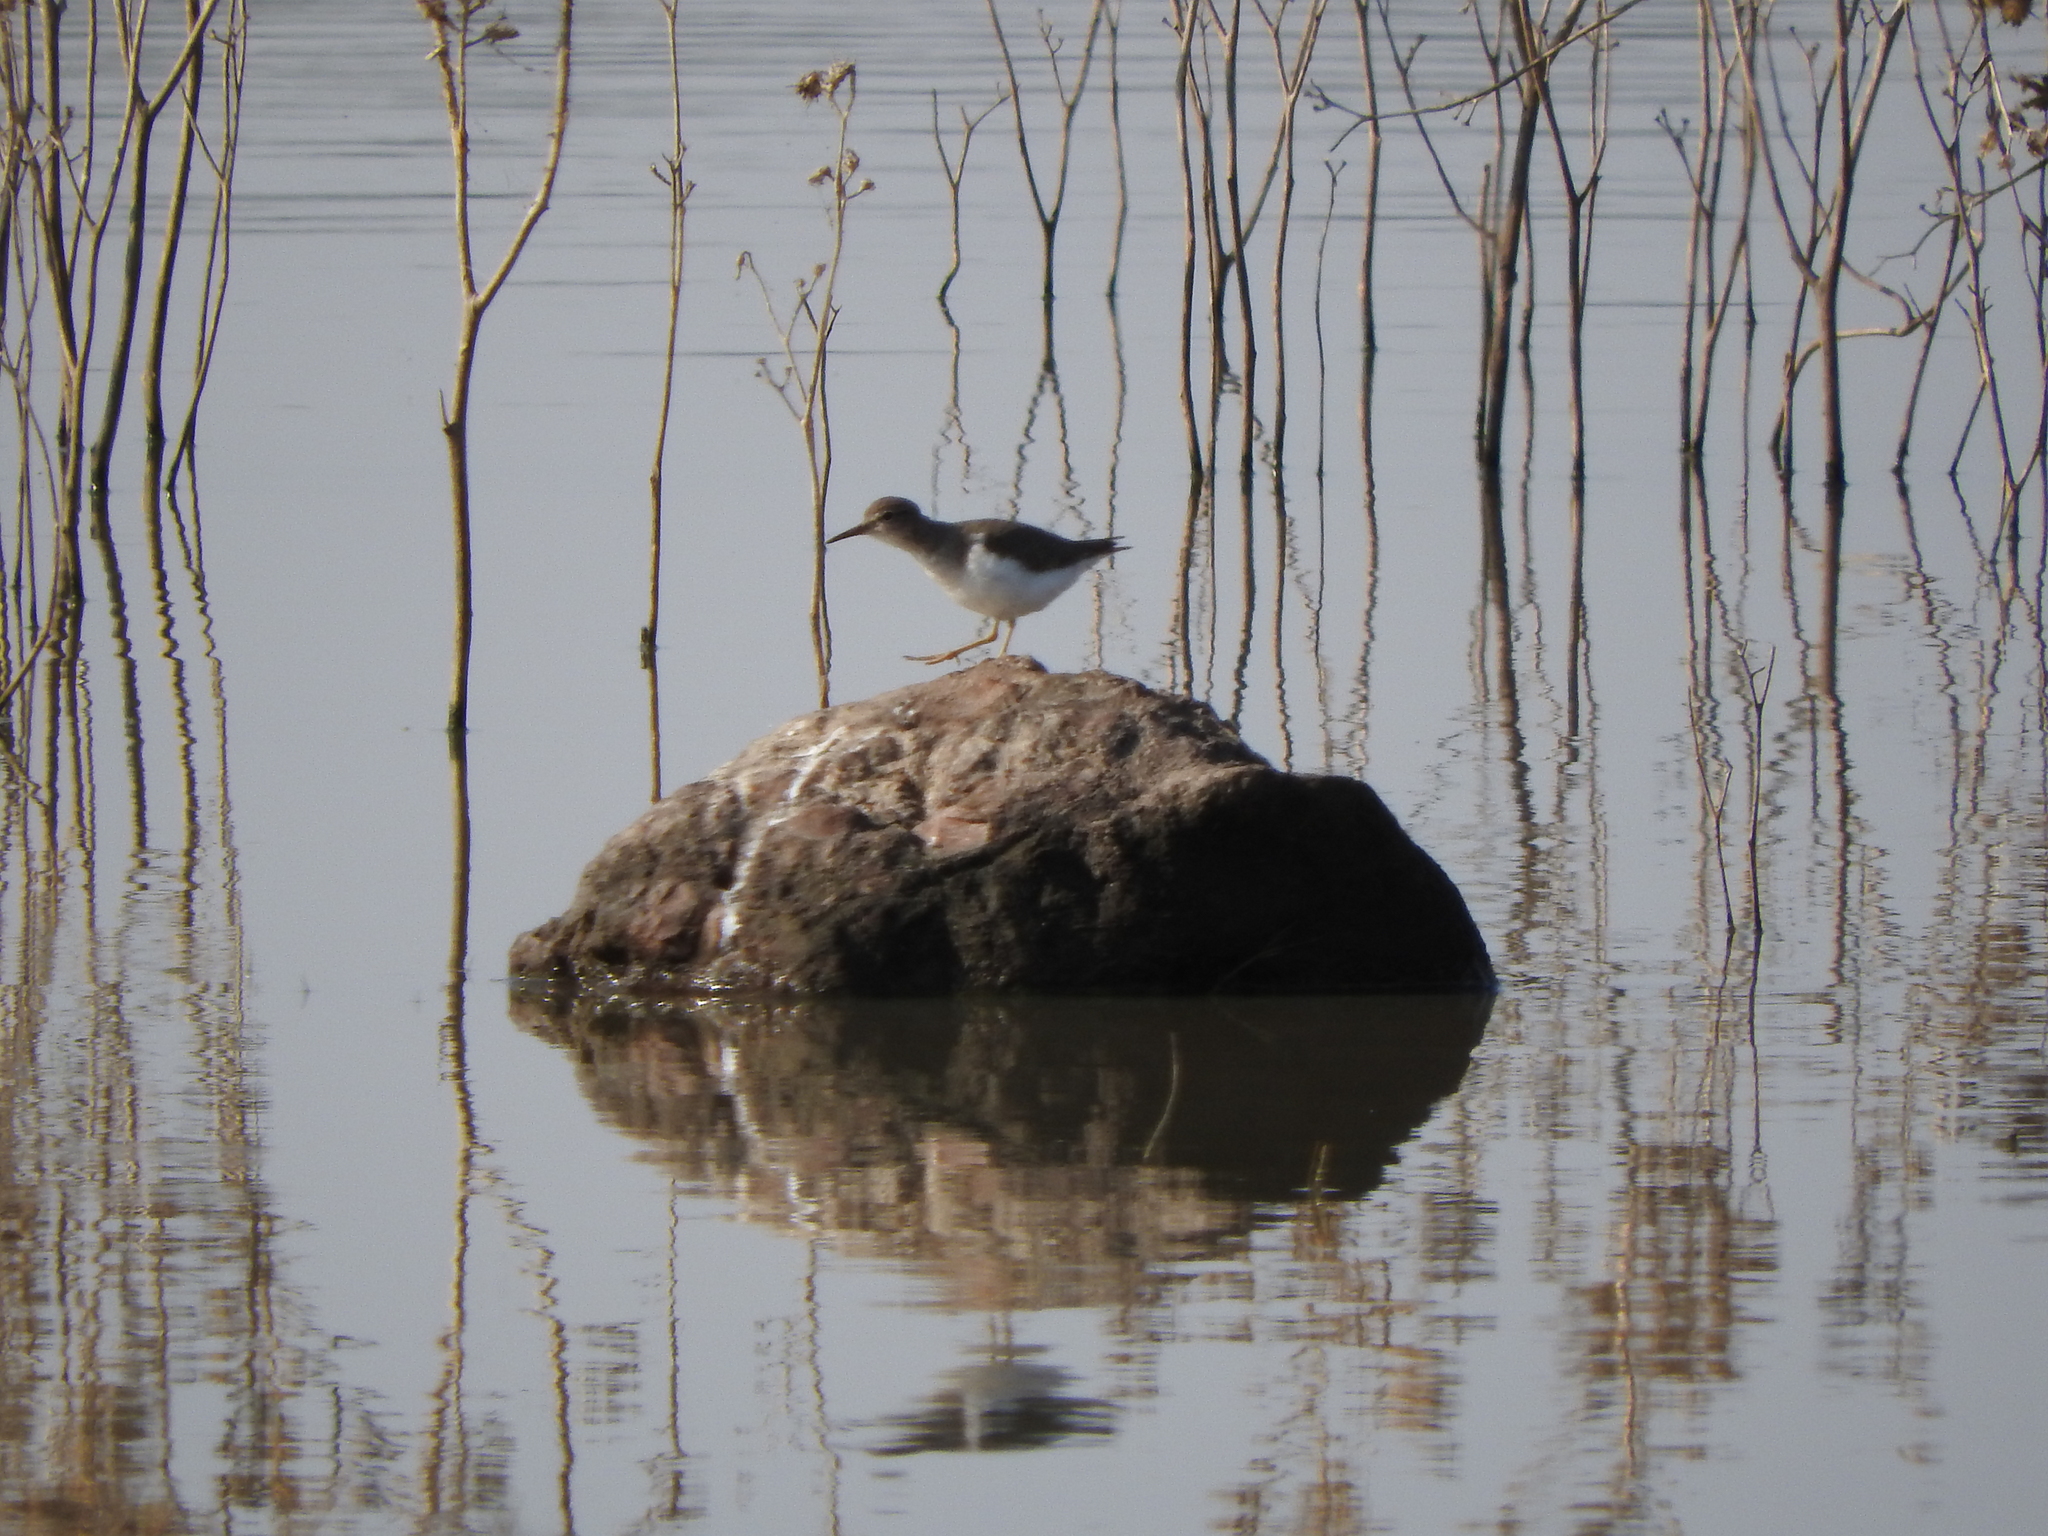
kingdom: Animalia
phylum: Chordata
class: Aves
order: Charadriiformes
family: Scolopacidae
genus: Actitis
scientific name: Actitis macularius
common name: Spotted sandpiper
